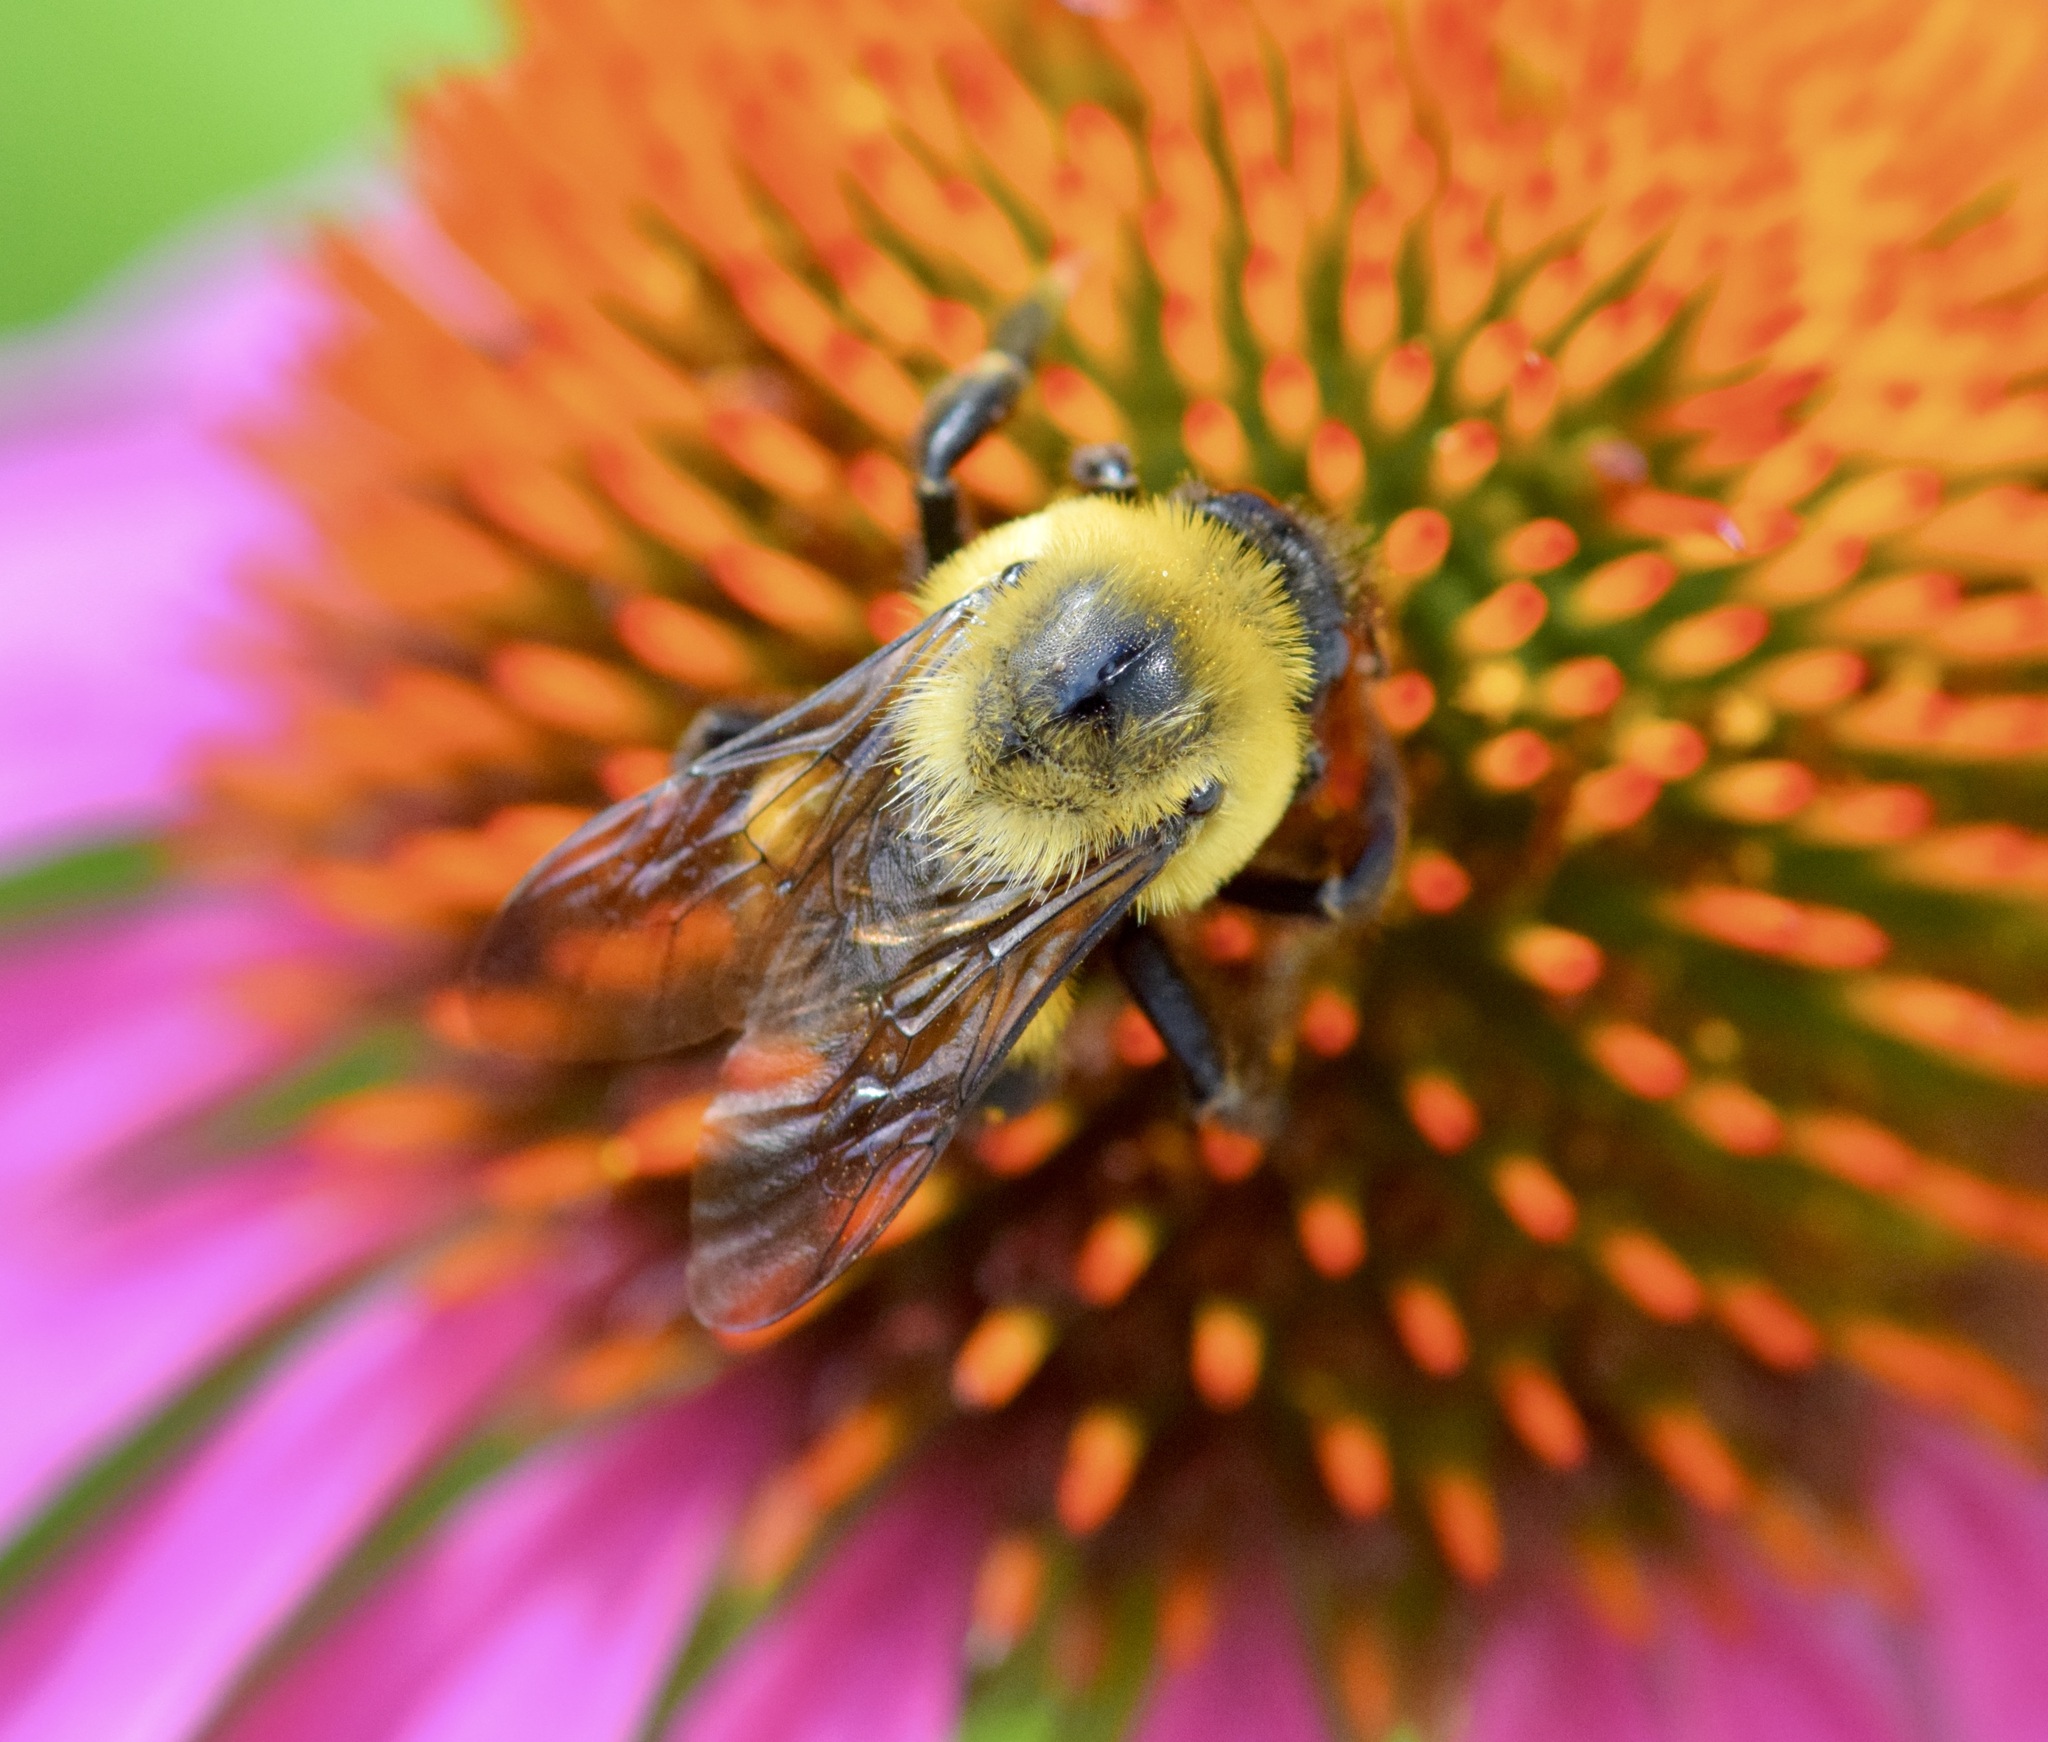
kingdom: Animalia
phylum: Arthropoda
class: Insecta
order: Hymenoptera
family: Apidae
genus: Bombus
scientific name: Bombus griseocollis
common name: Brown-belted bumble bee
